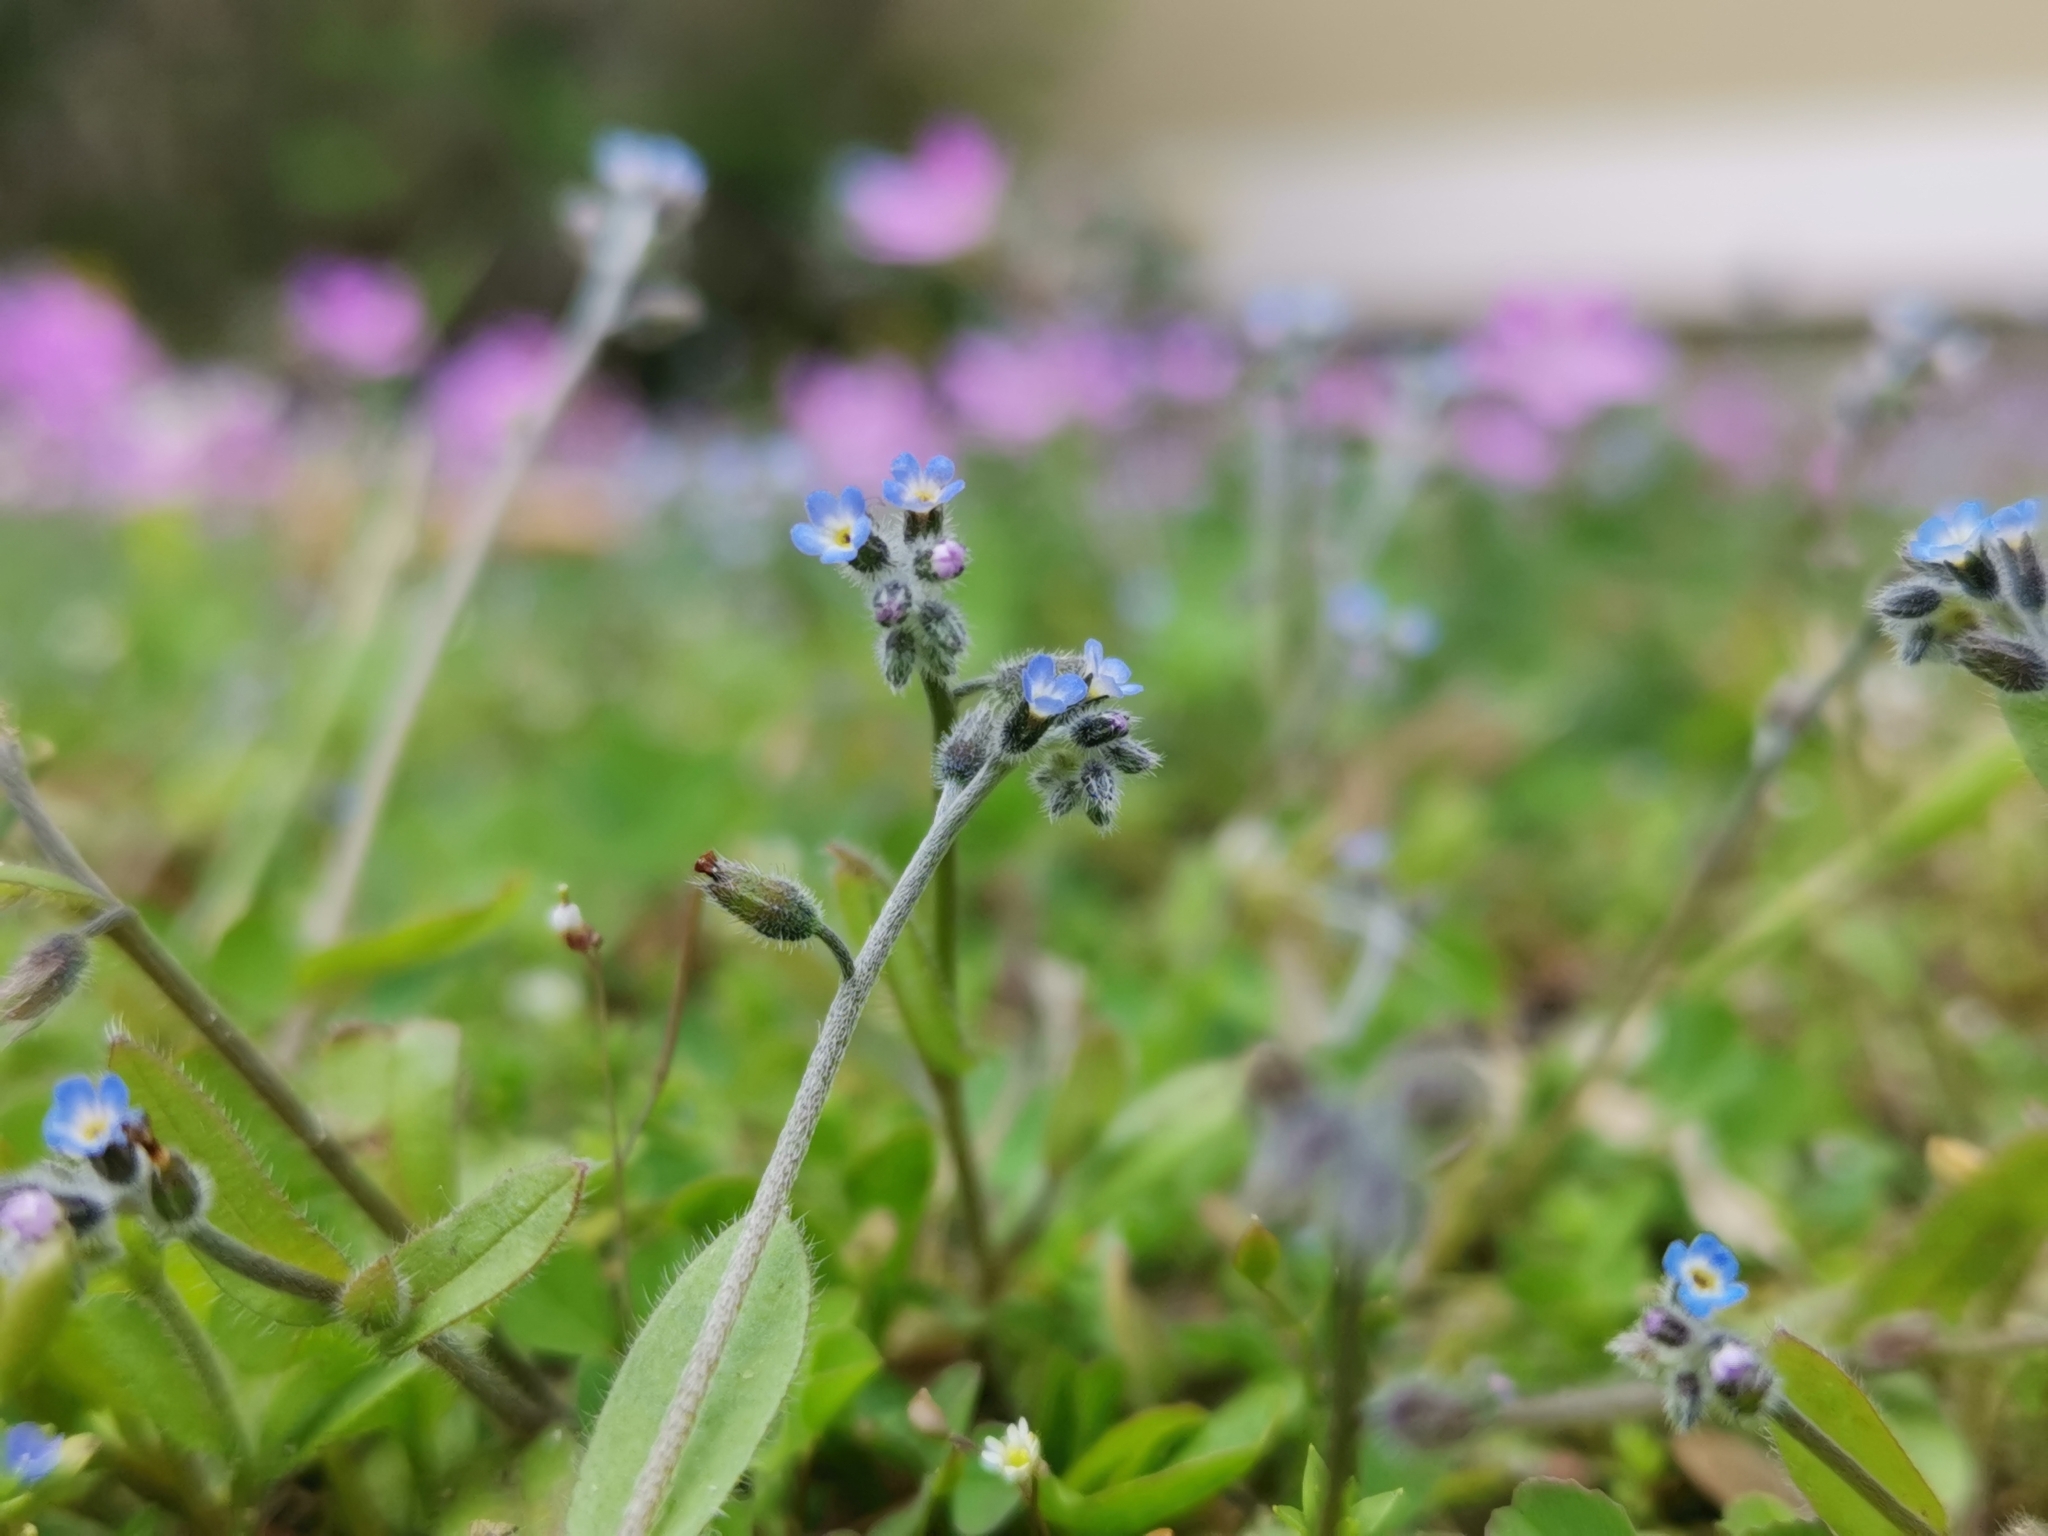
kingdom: Plantae
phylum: Tracheophyta
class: Magnoliopsida
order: Boraginales
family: Boraginaceae
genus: Myosotis
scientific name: Myosotis ramosissima
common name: Early forget-me-not
